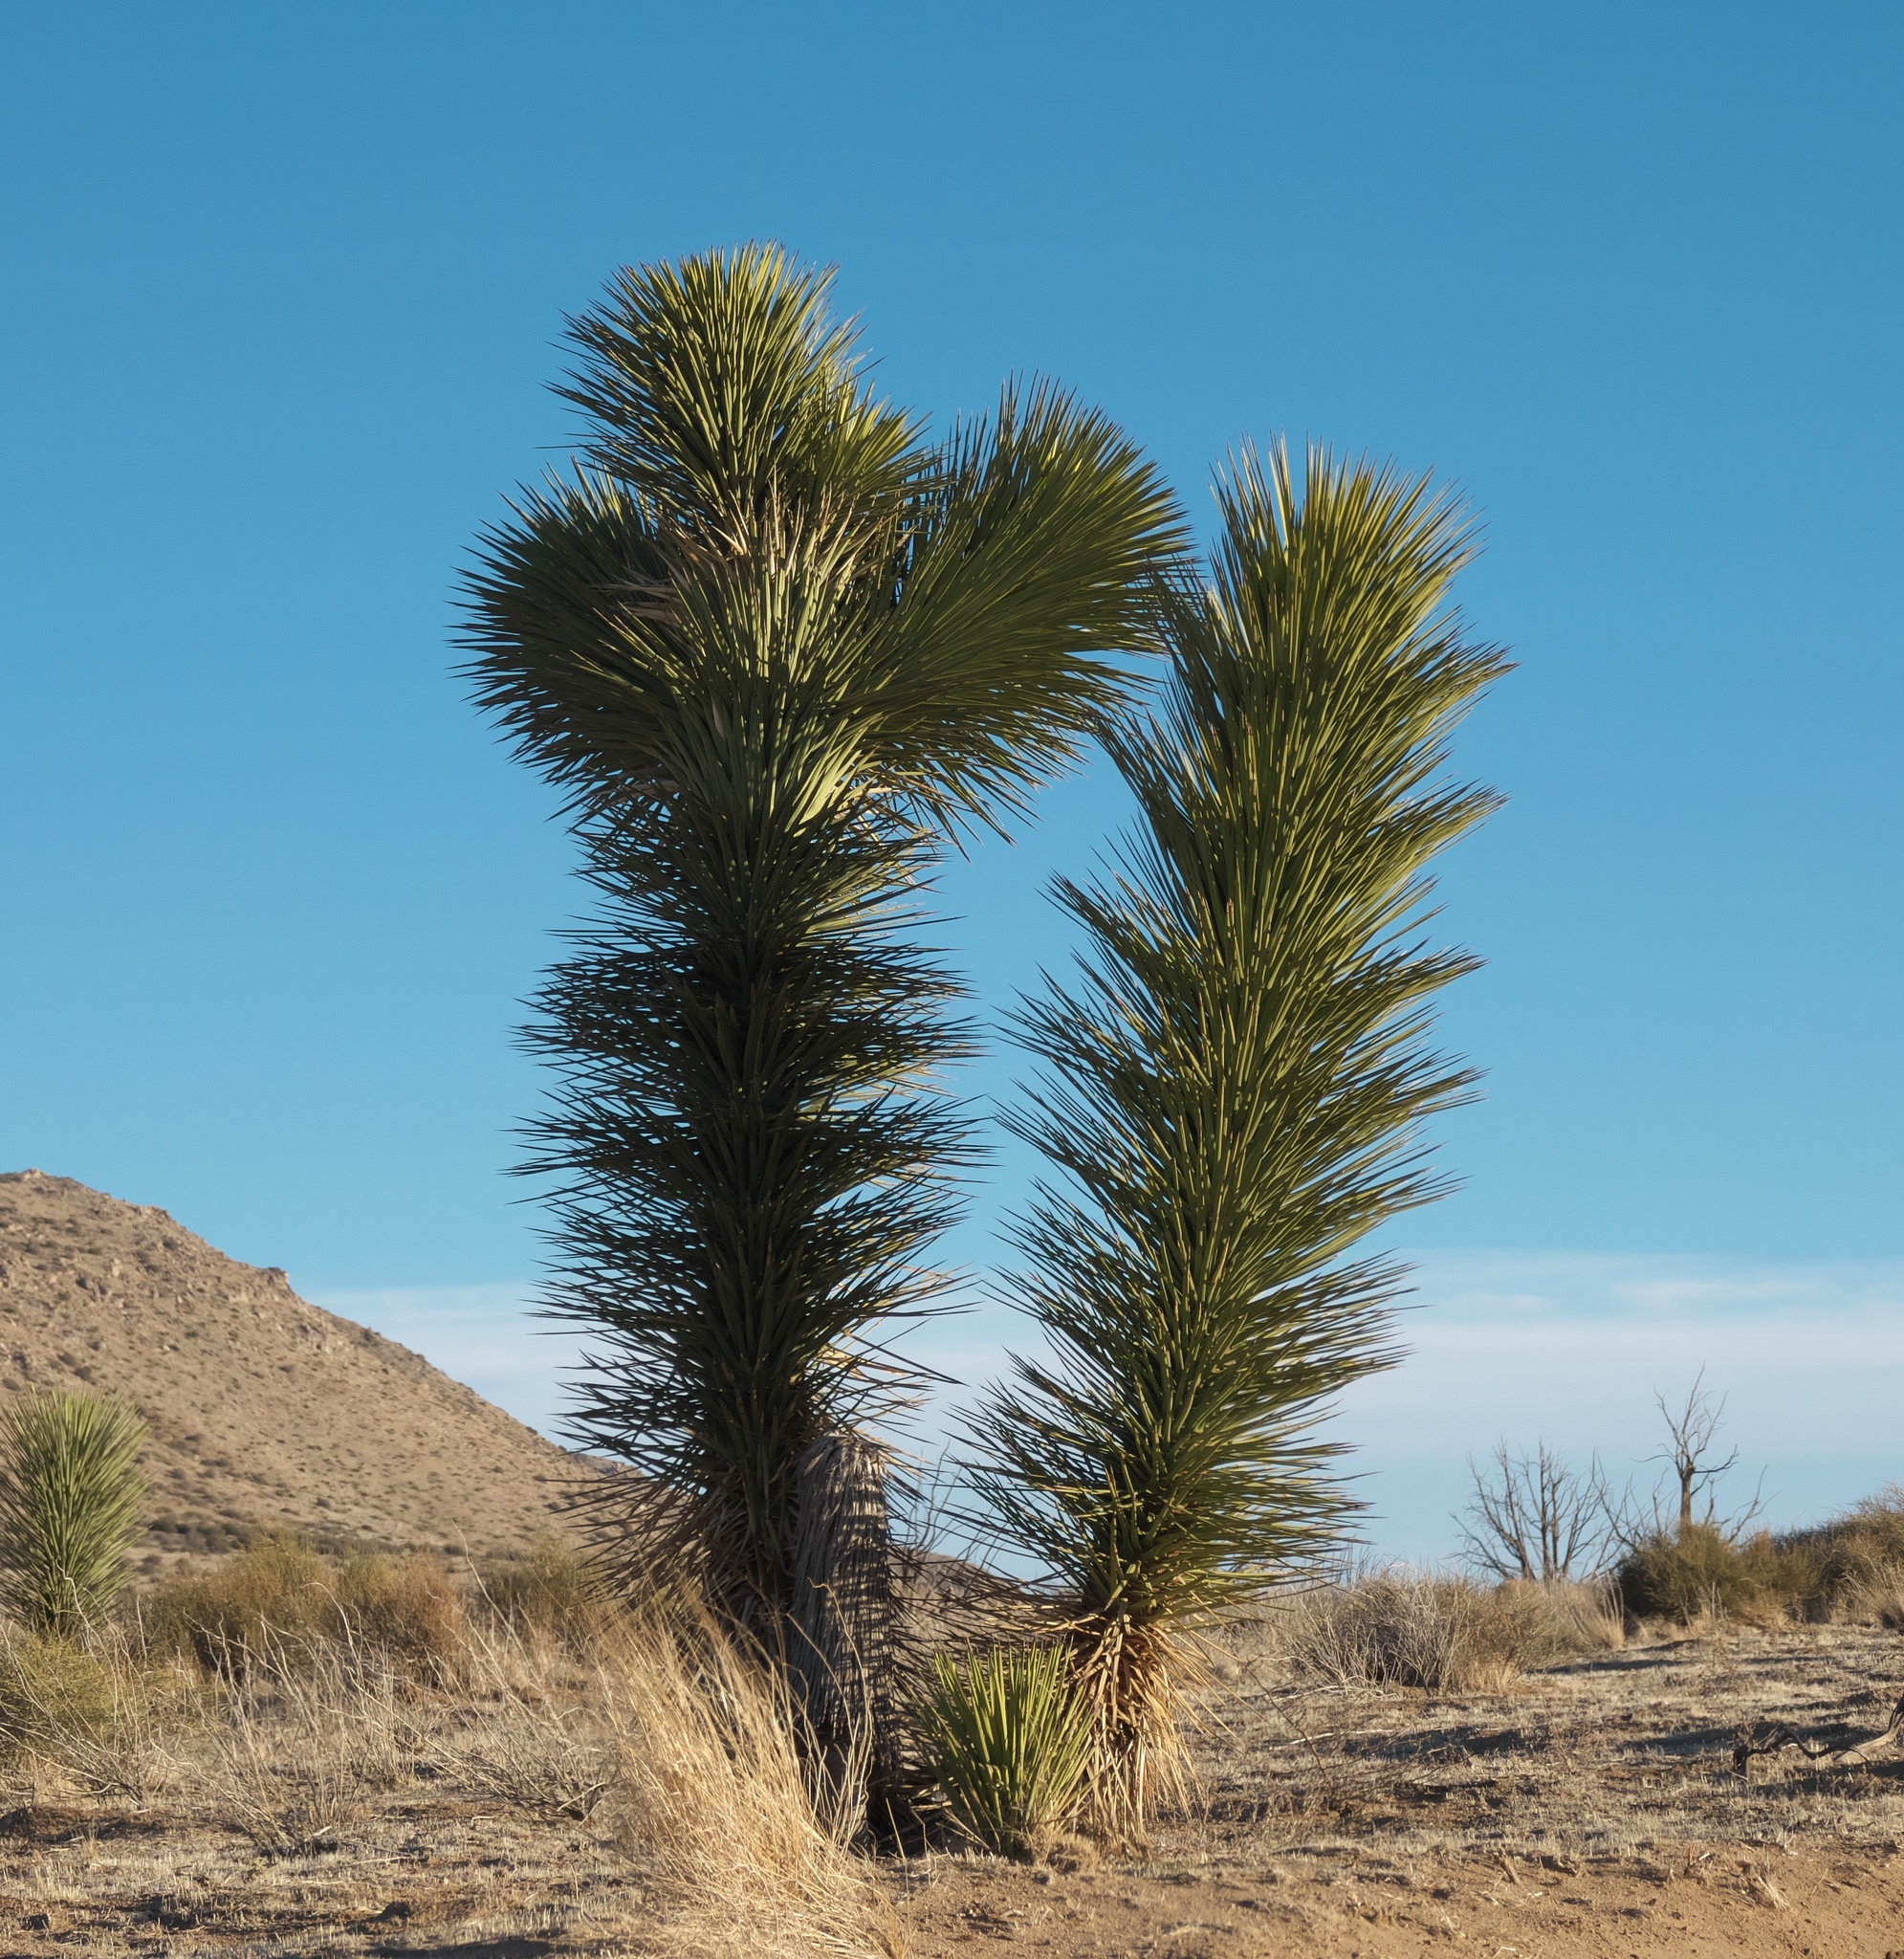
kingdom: Plantae
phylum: Tracheophyta
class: Liliopsida
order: Asparagales
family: Asparagaceae
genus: Yucca
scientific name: Yucca brevifolia
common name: Joshua tree
